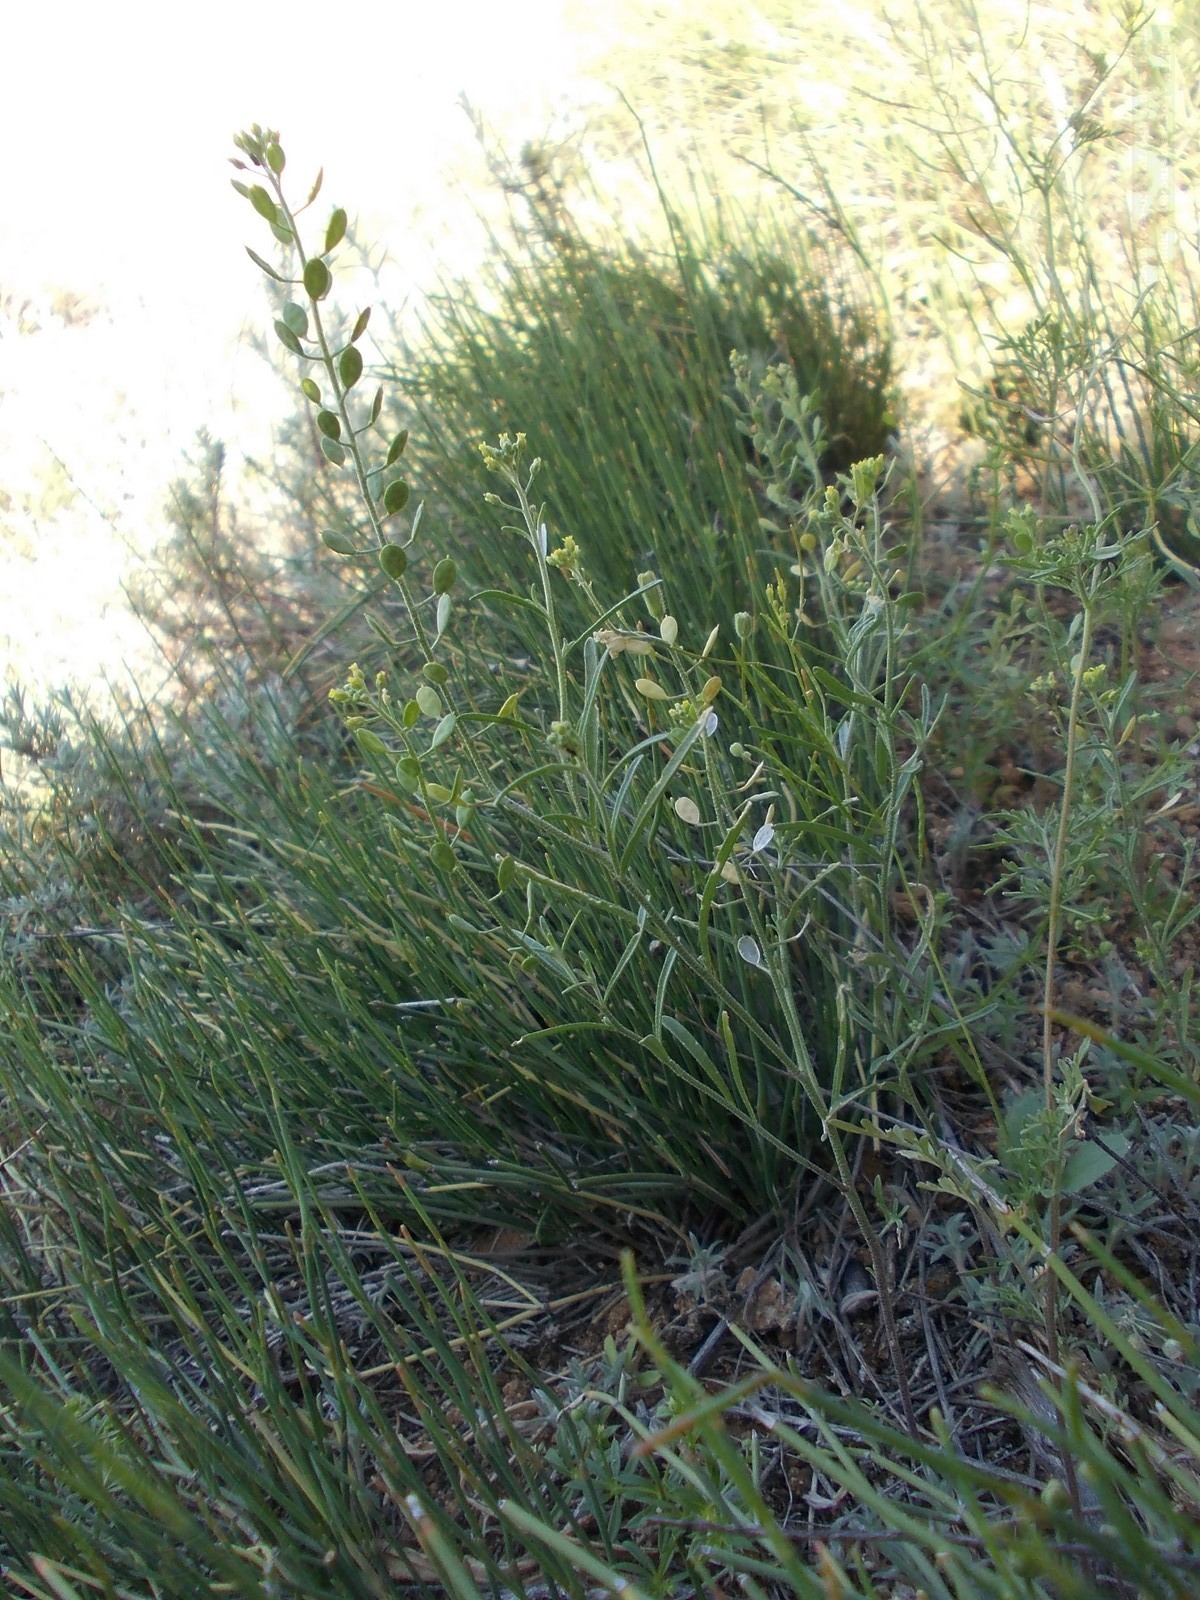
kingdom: Plantae
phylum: Tracheophyta
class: Magnoliopsida
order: Brassicales
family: Brassicaceae
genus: Meniocus
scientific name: Meniocus linifolius
